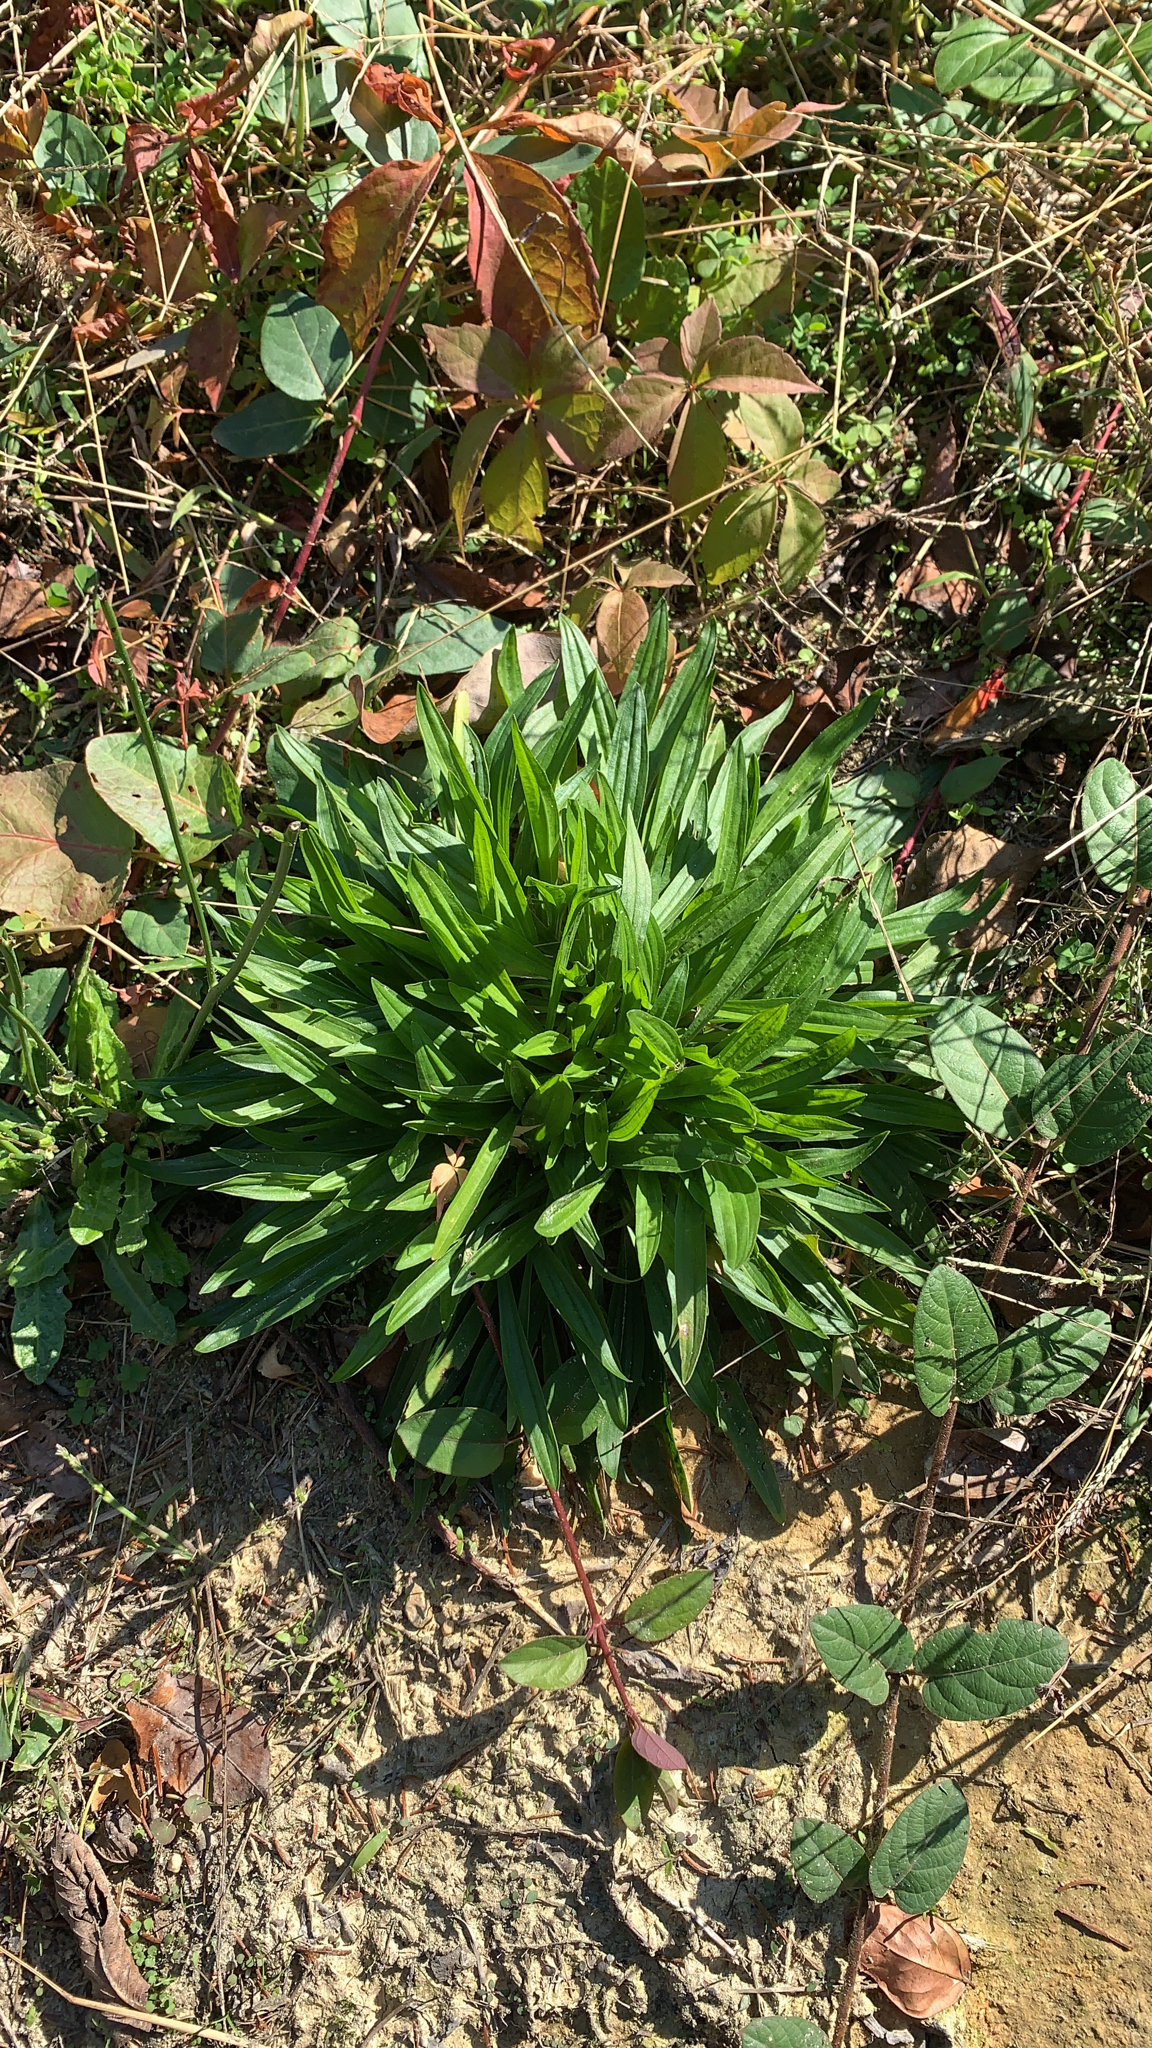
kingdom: Plantae
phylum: Tracheophyta
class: Magnoliopsida
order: Lamiales
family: Plantaginaceae
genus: Plantago
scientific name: Plantago lanceolata
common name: Ribwort plantain
